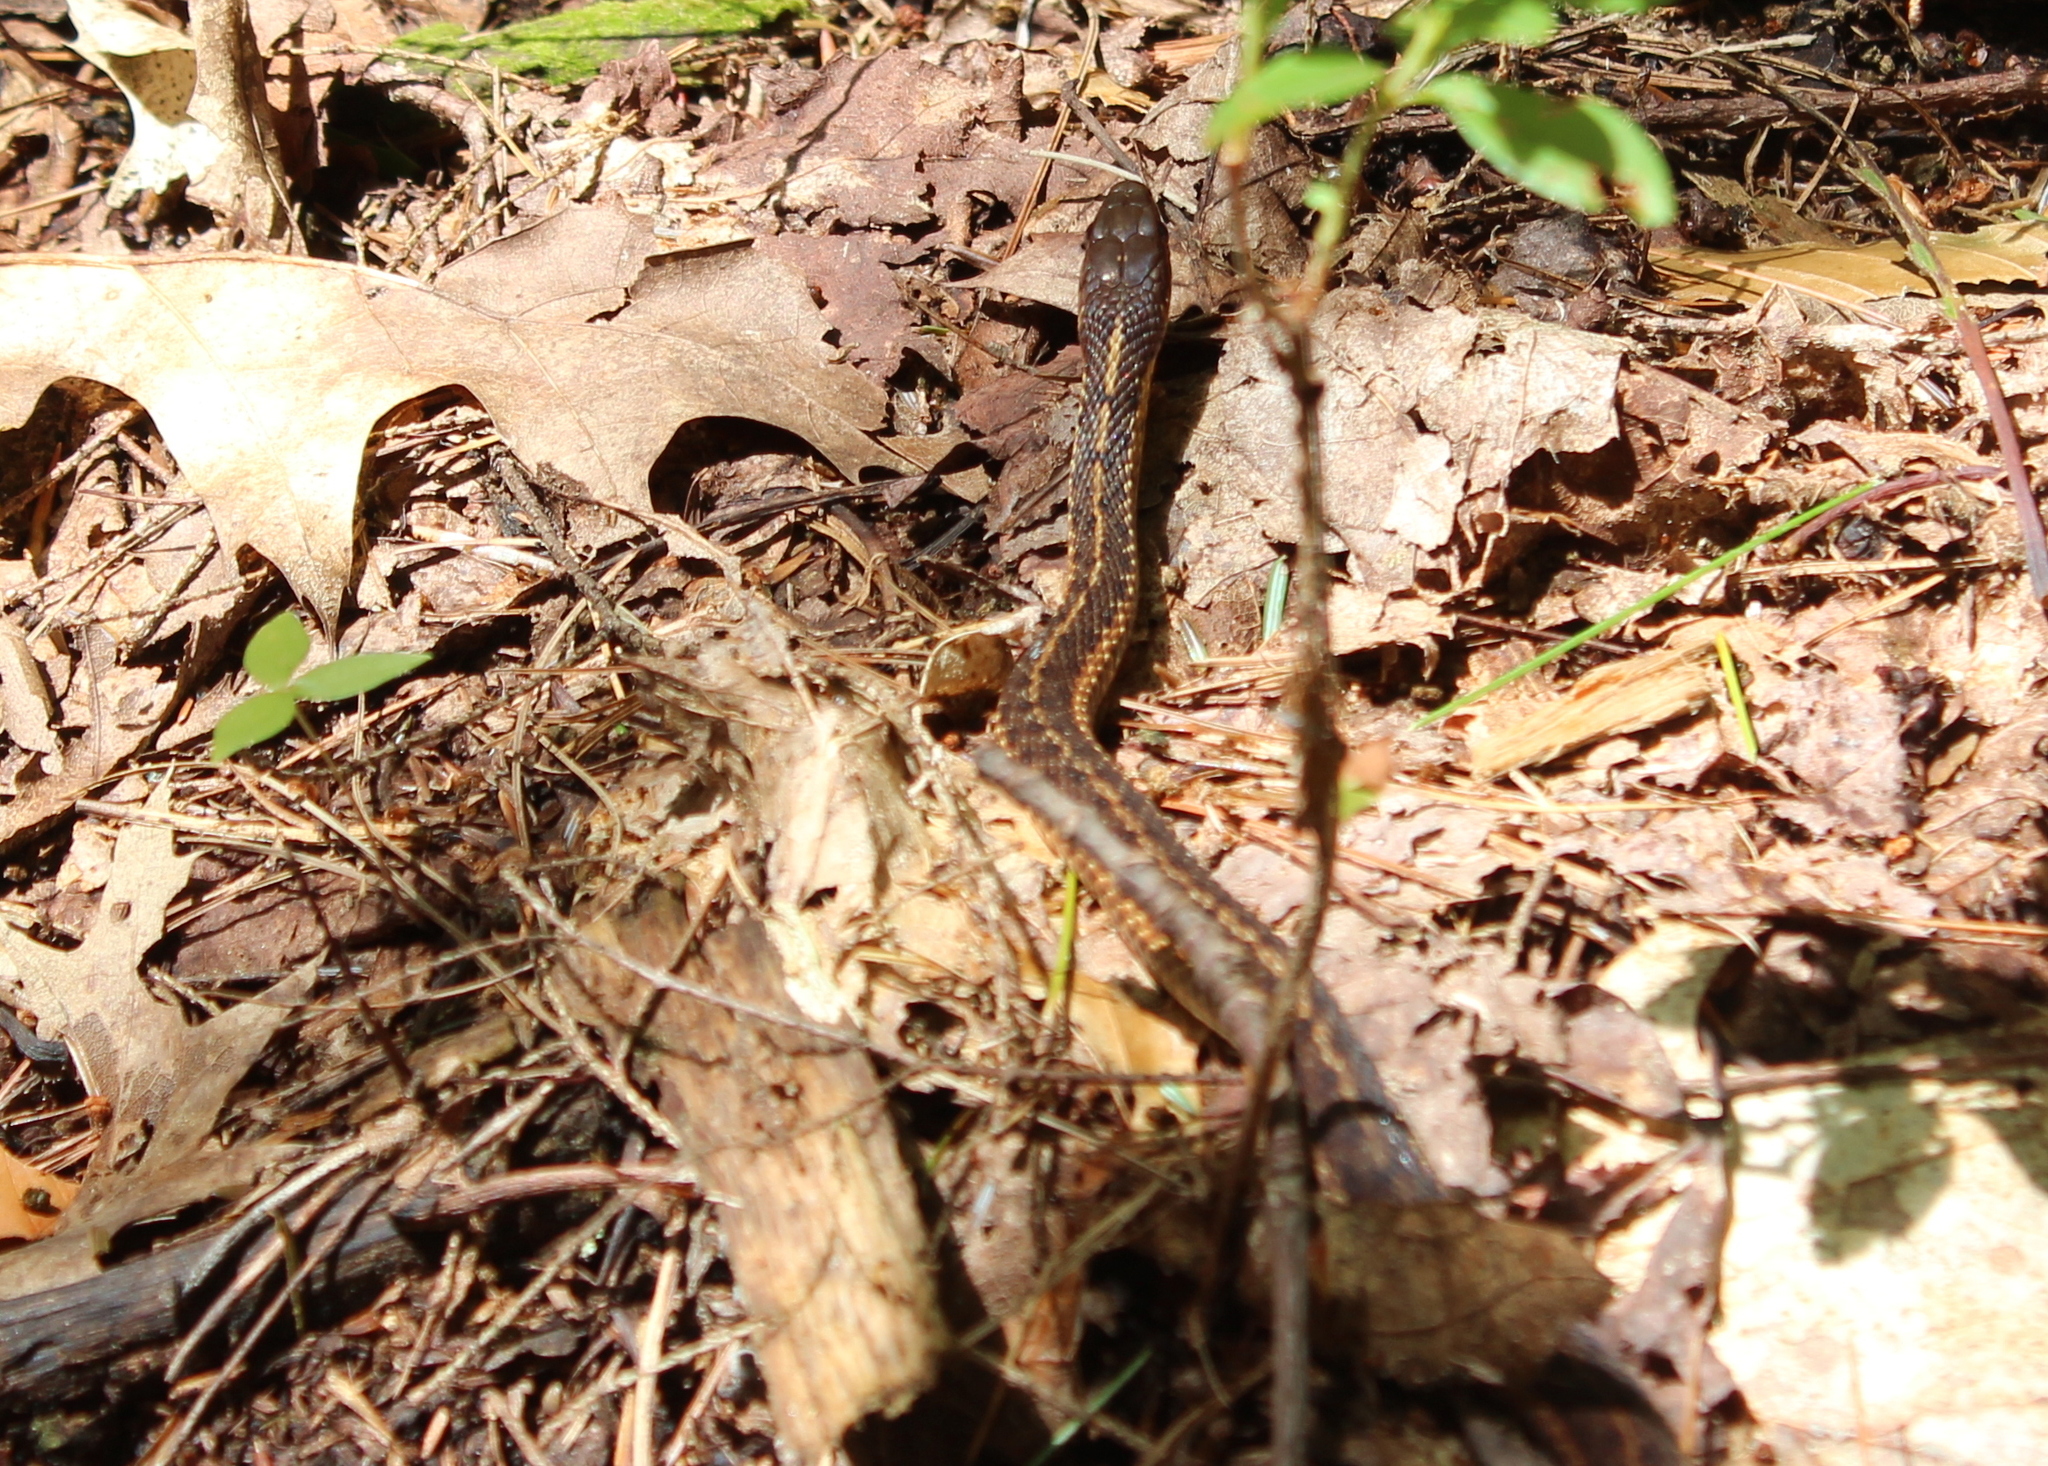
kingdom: Animalia
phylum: Chordata
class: Squamata
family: Colubridae
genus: Thamnophis
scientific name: Thamnophis sirtalis
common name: Common garter snake
